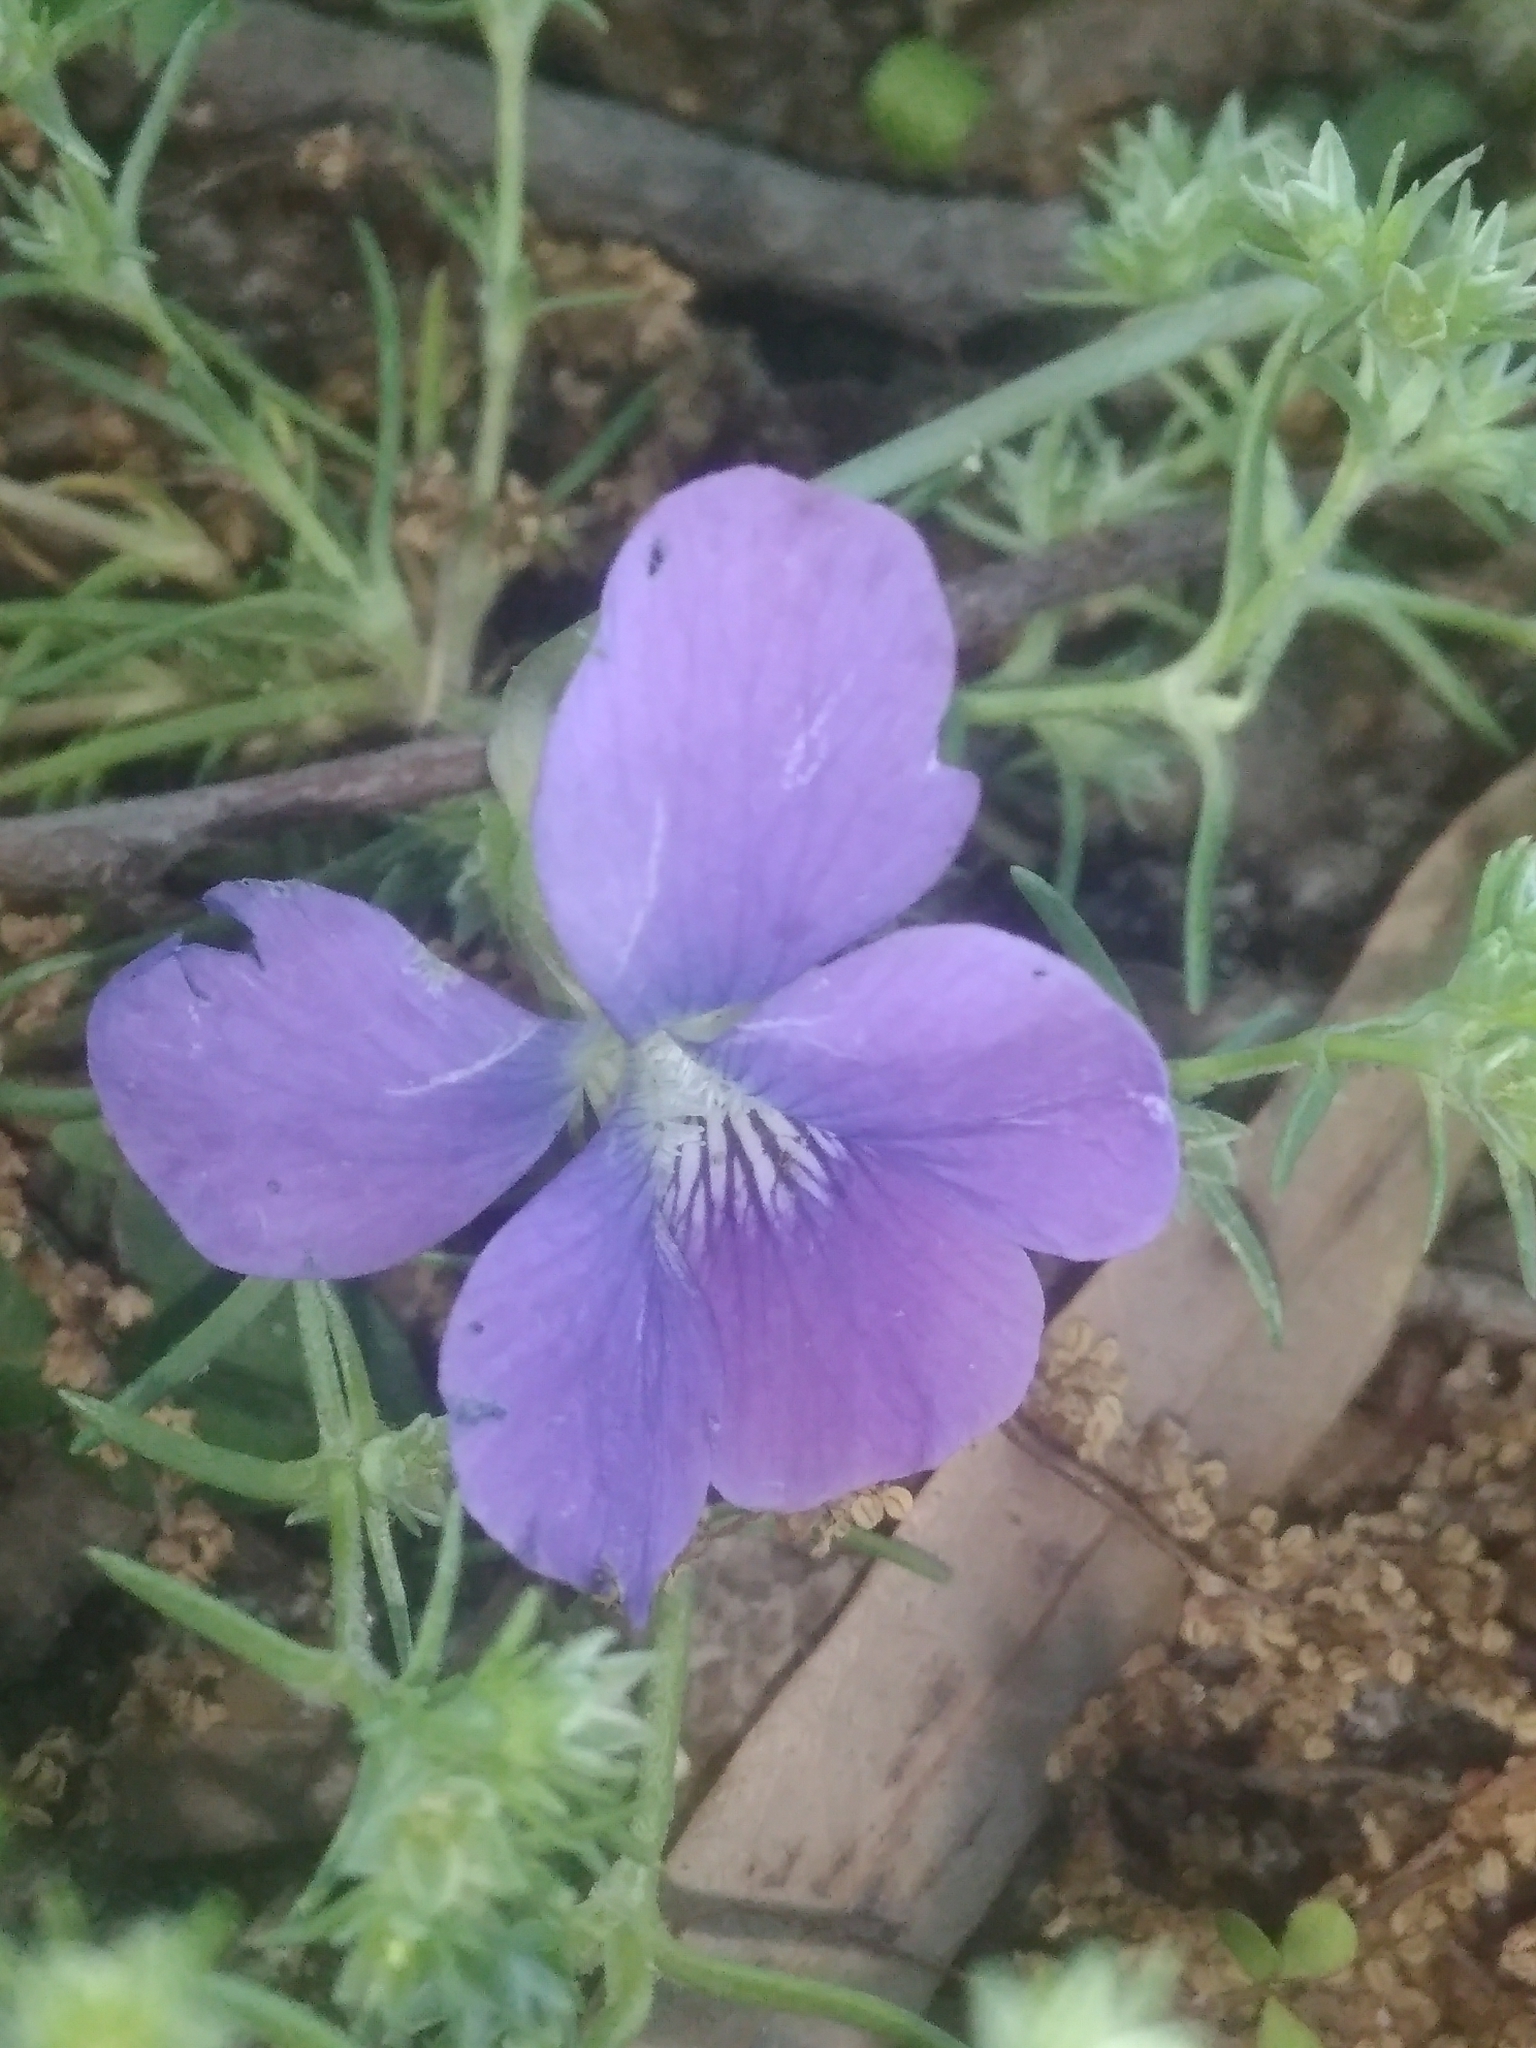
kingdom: Plantae
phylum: Tracheophyta
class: Magnoliopsida
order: Malpighiales
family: Violaceae
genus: Viola
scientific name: Viola sororia
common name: Dooryard violet
